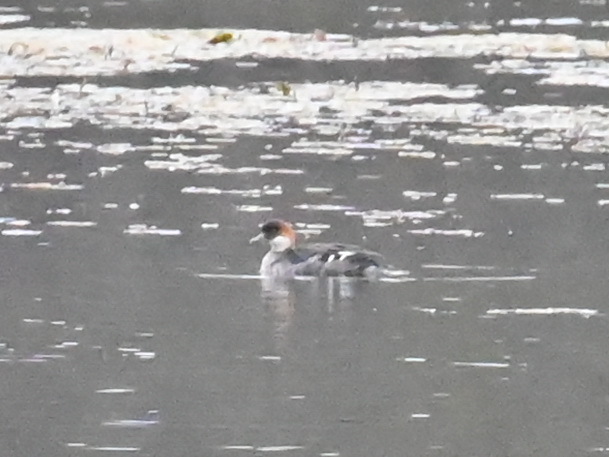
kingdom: Animalia
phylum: Chordata
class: Aves
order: Anseriformes
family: Anatidae
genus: Mergellus
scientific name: Mergellus albellus
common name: Smew
